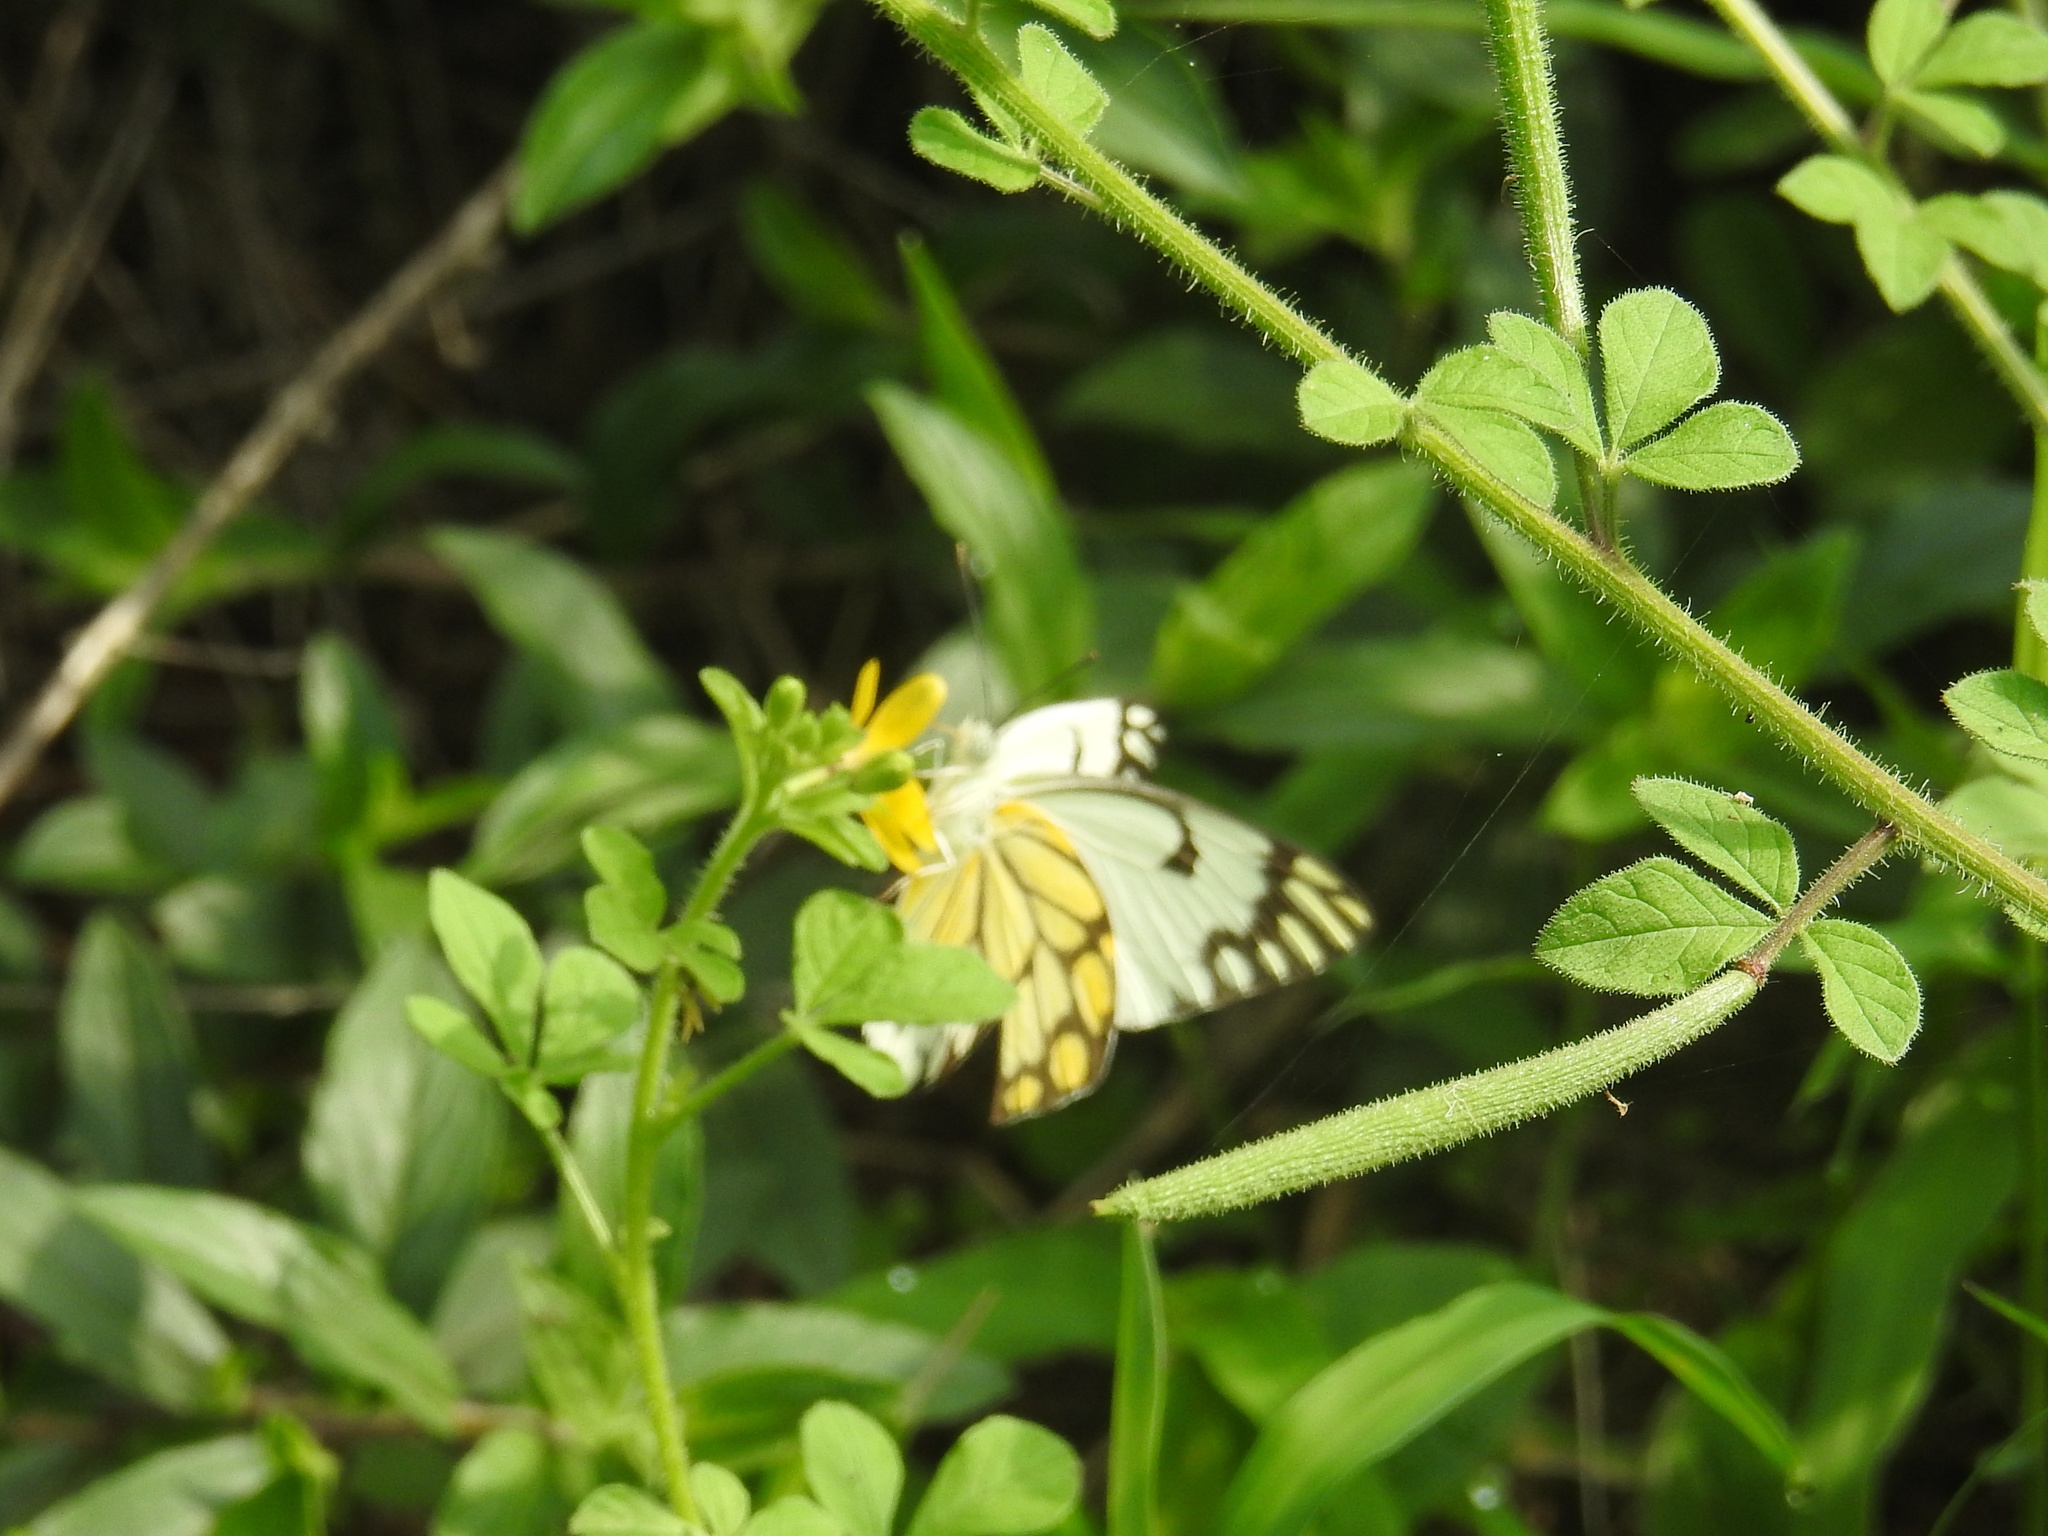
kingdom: Animalia
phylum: Arthropoda
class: Insecta
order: Lepidoptera
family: Pieridae
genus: Belenois
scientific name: Belenois aurota
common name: Brown-veined white
